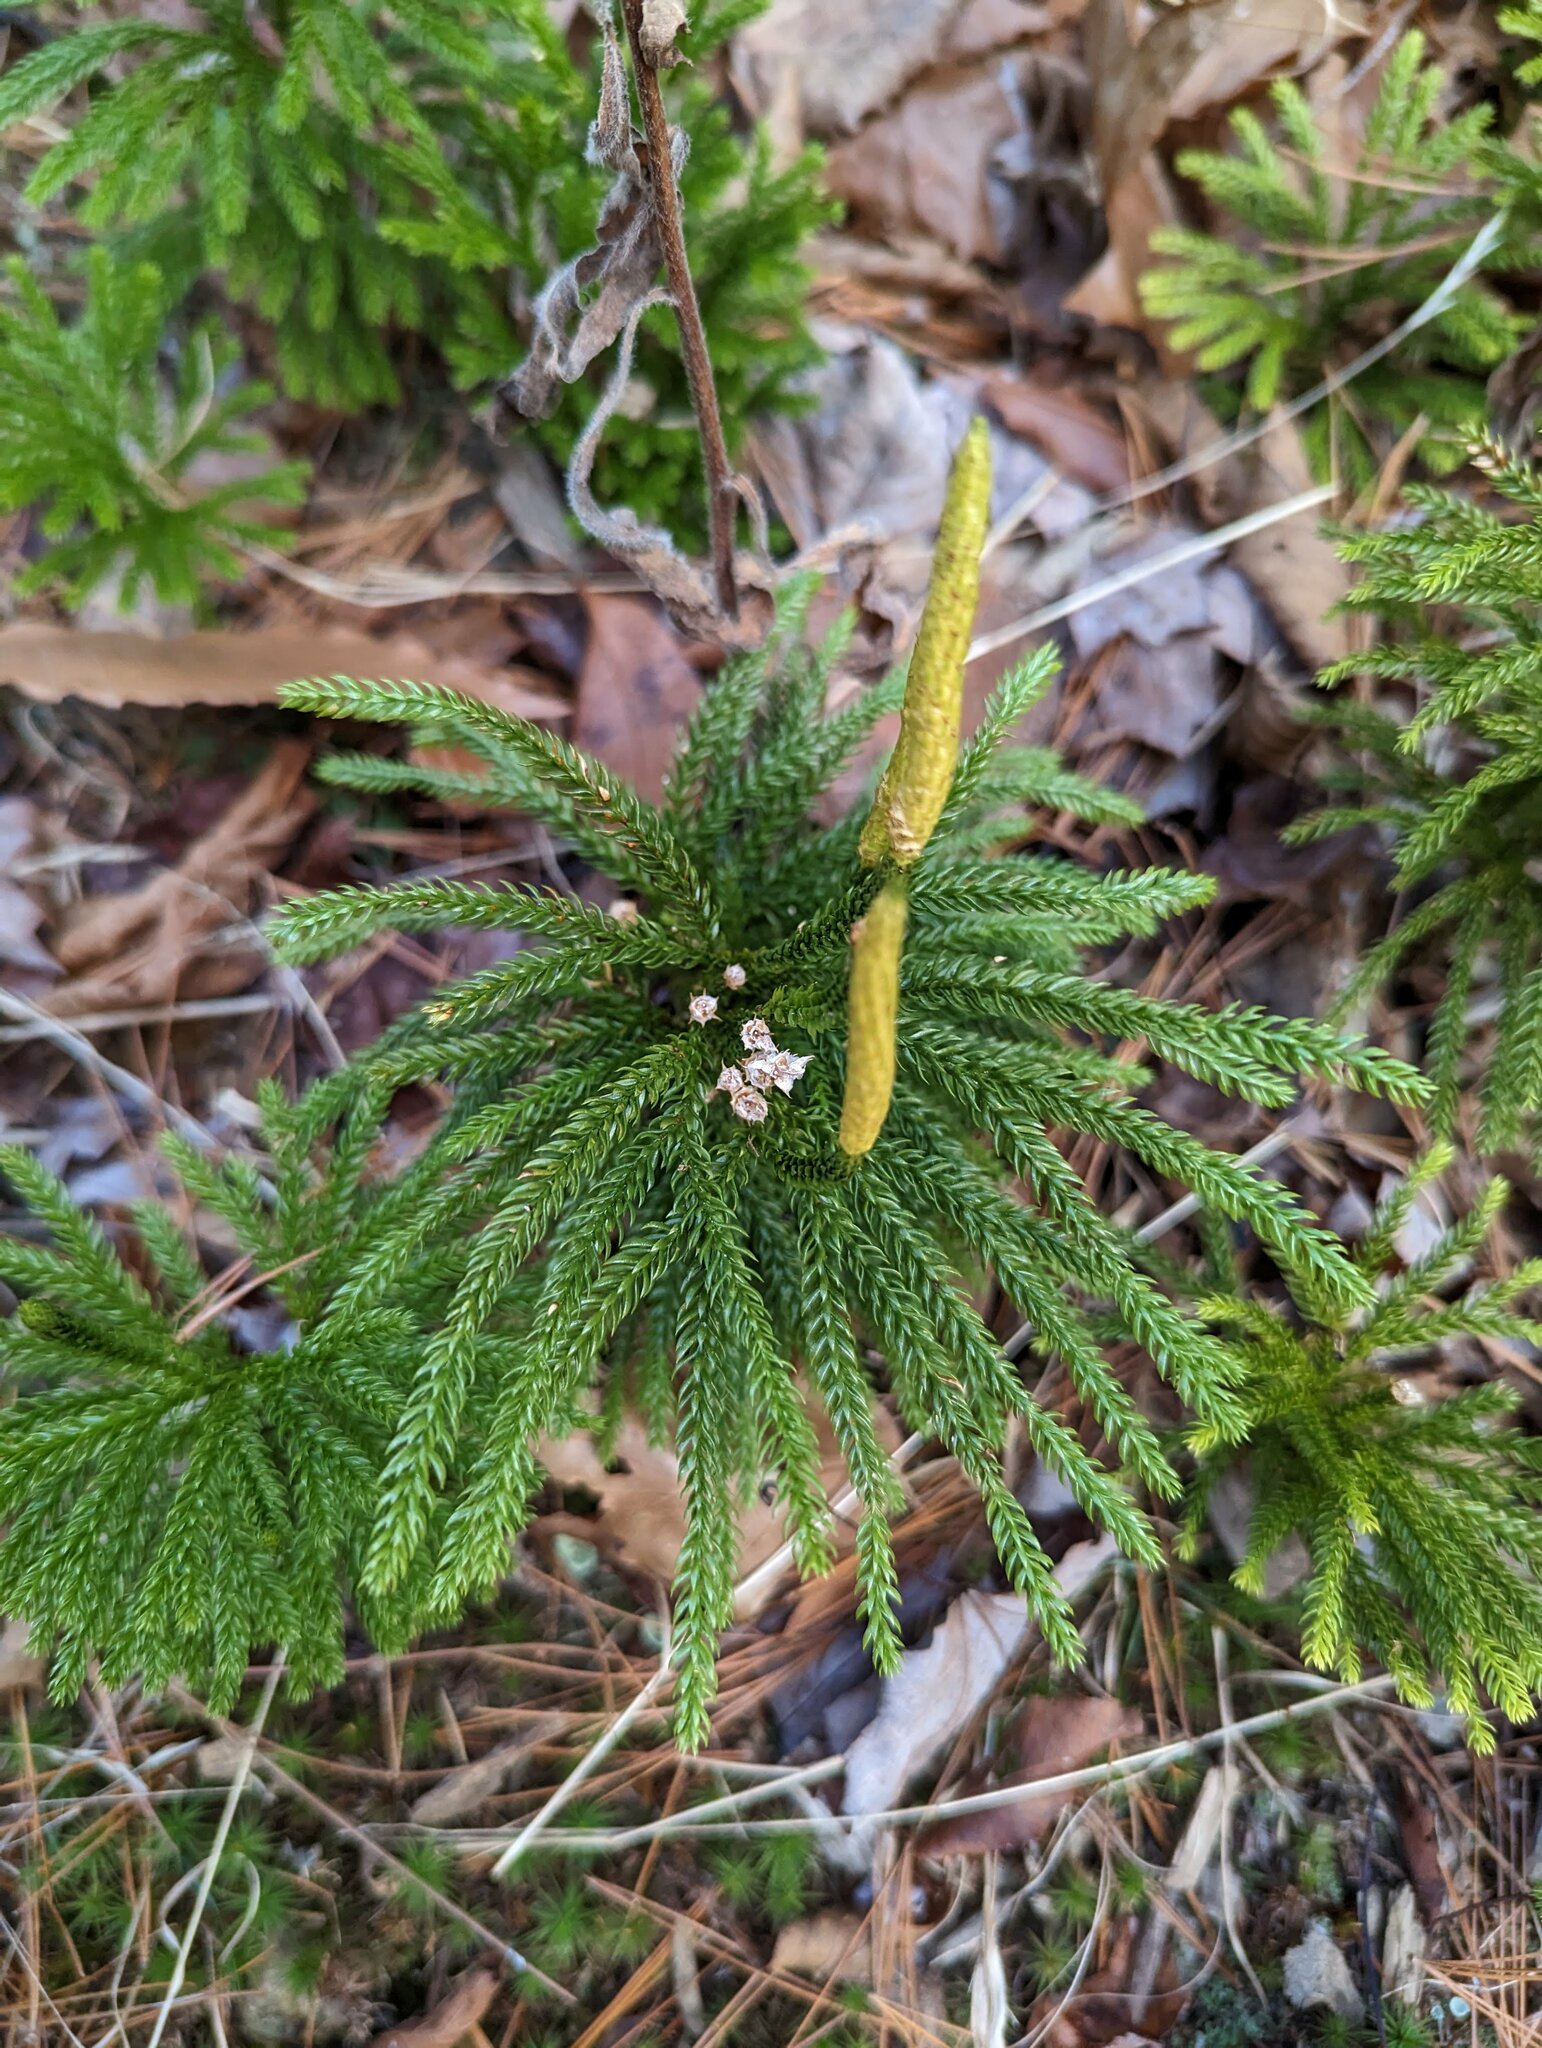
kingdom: Plantae
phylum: Tracheophyta
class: Lycopodiopsida
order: Lycopodiales
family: Lycopodiaceae
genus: Dendrolycopodium
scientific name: Dendrolycopodium dendroideum
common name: Northern tree-clubmoss
